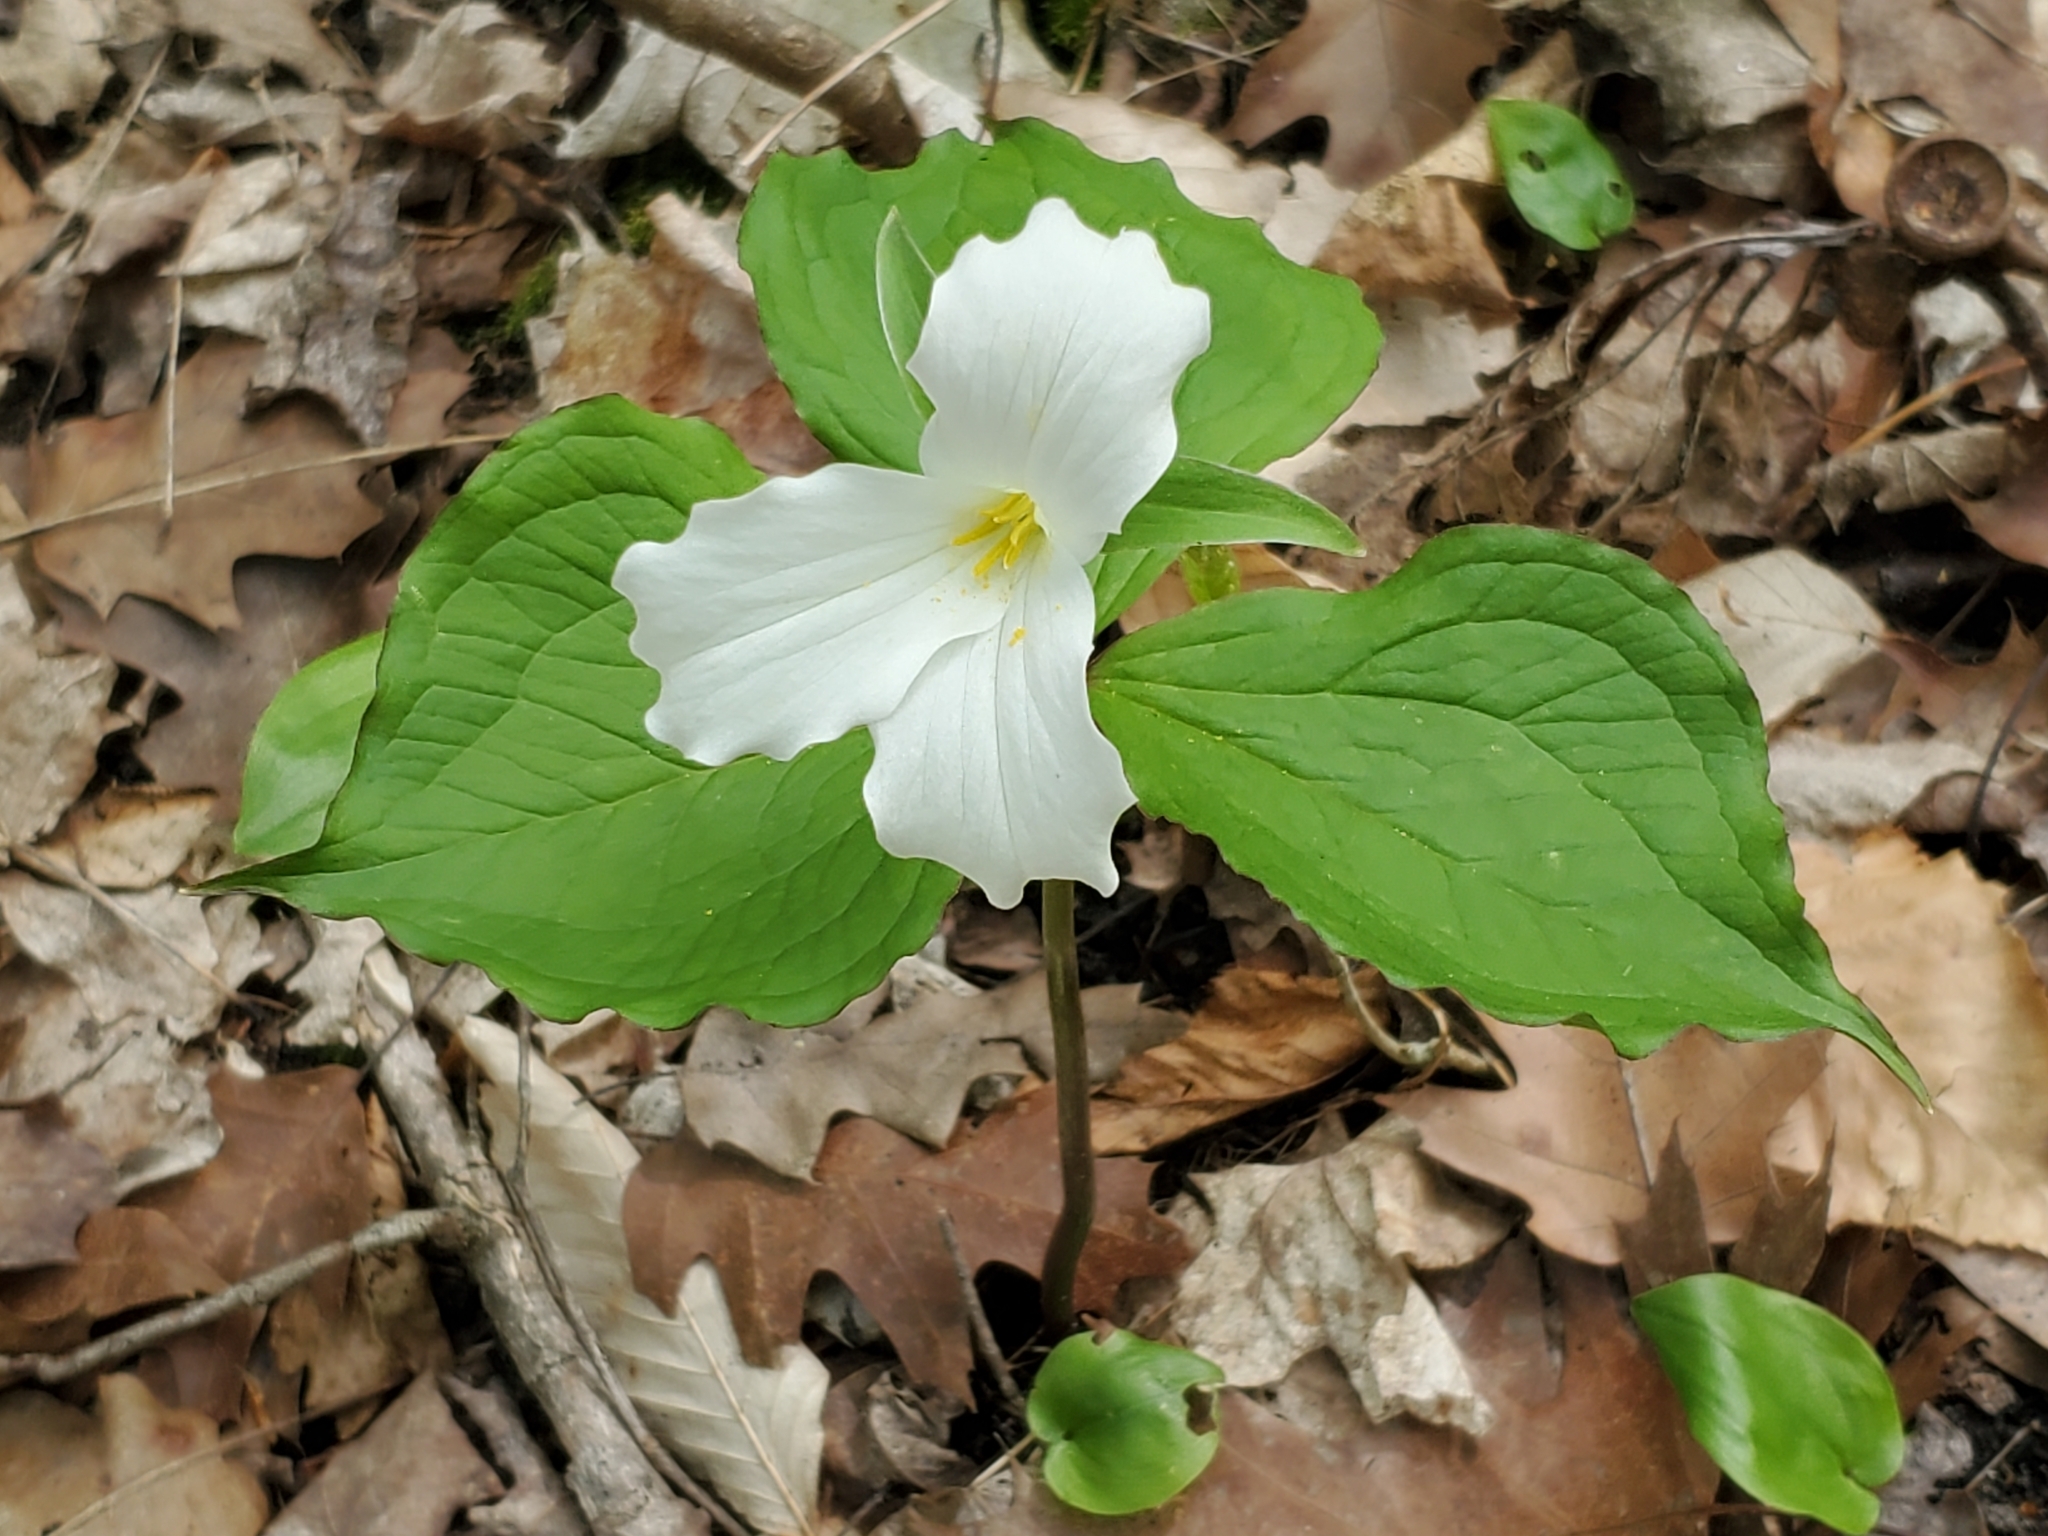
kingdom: Plantae
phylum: Tracheophyta
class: Liliopsida
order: Liliales
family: Melanthiaceae
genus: Trillium
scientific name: Trillium grandiflorum
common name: Great white trillium
